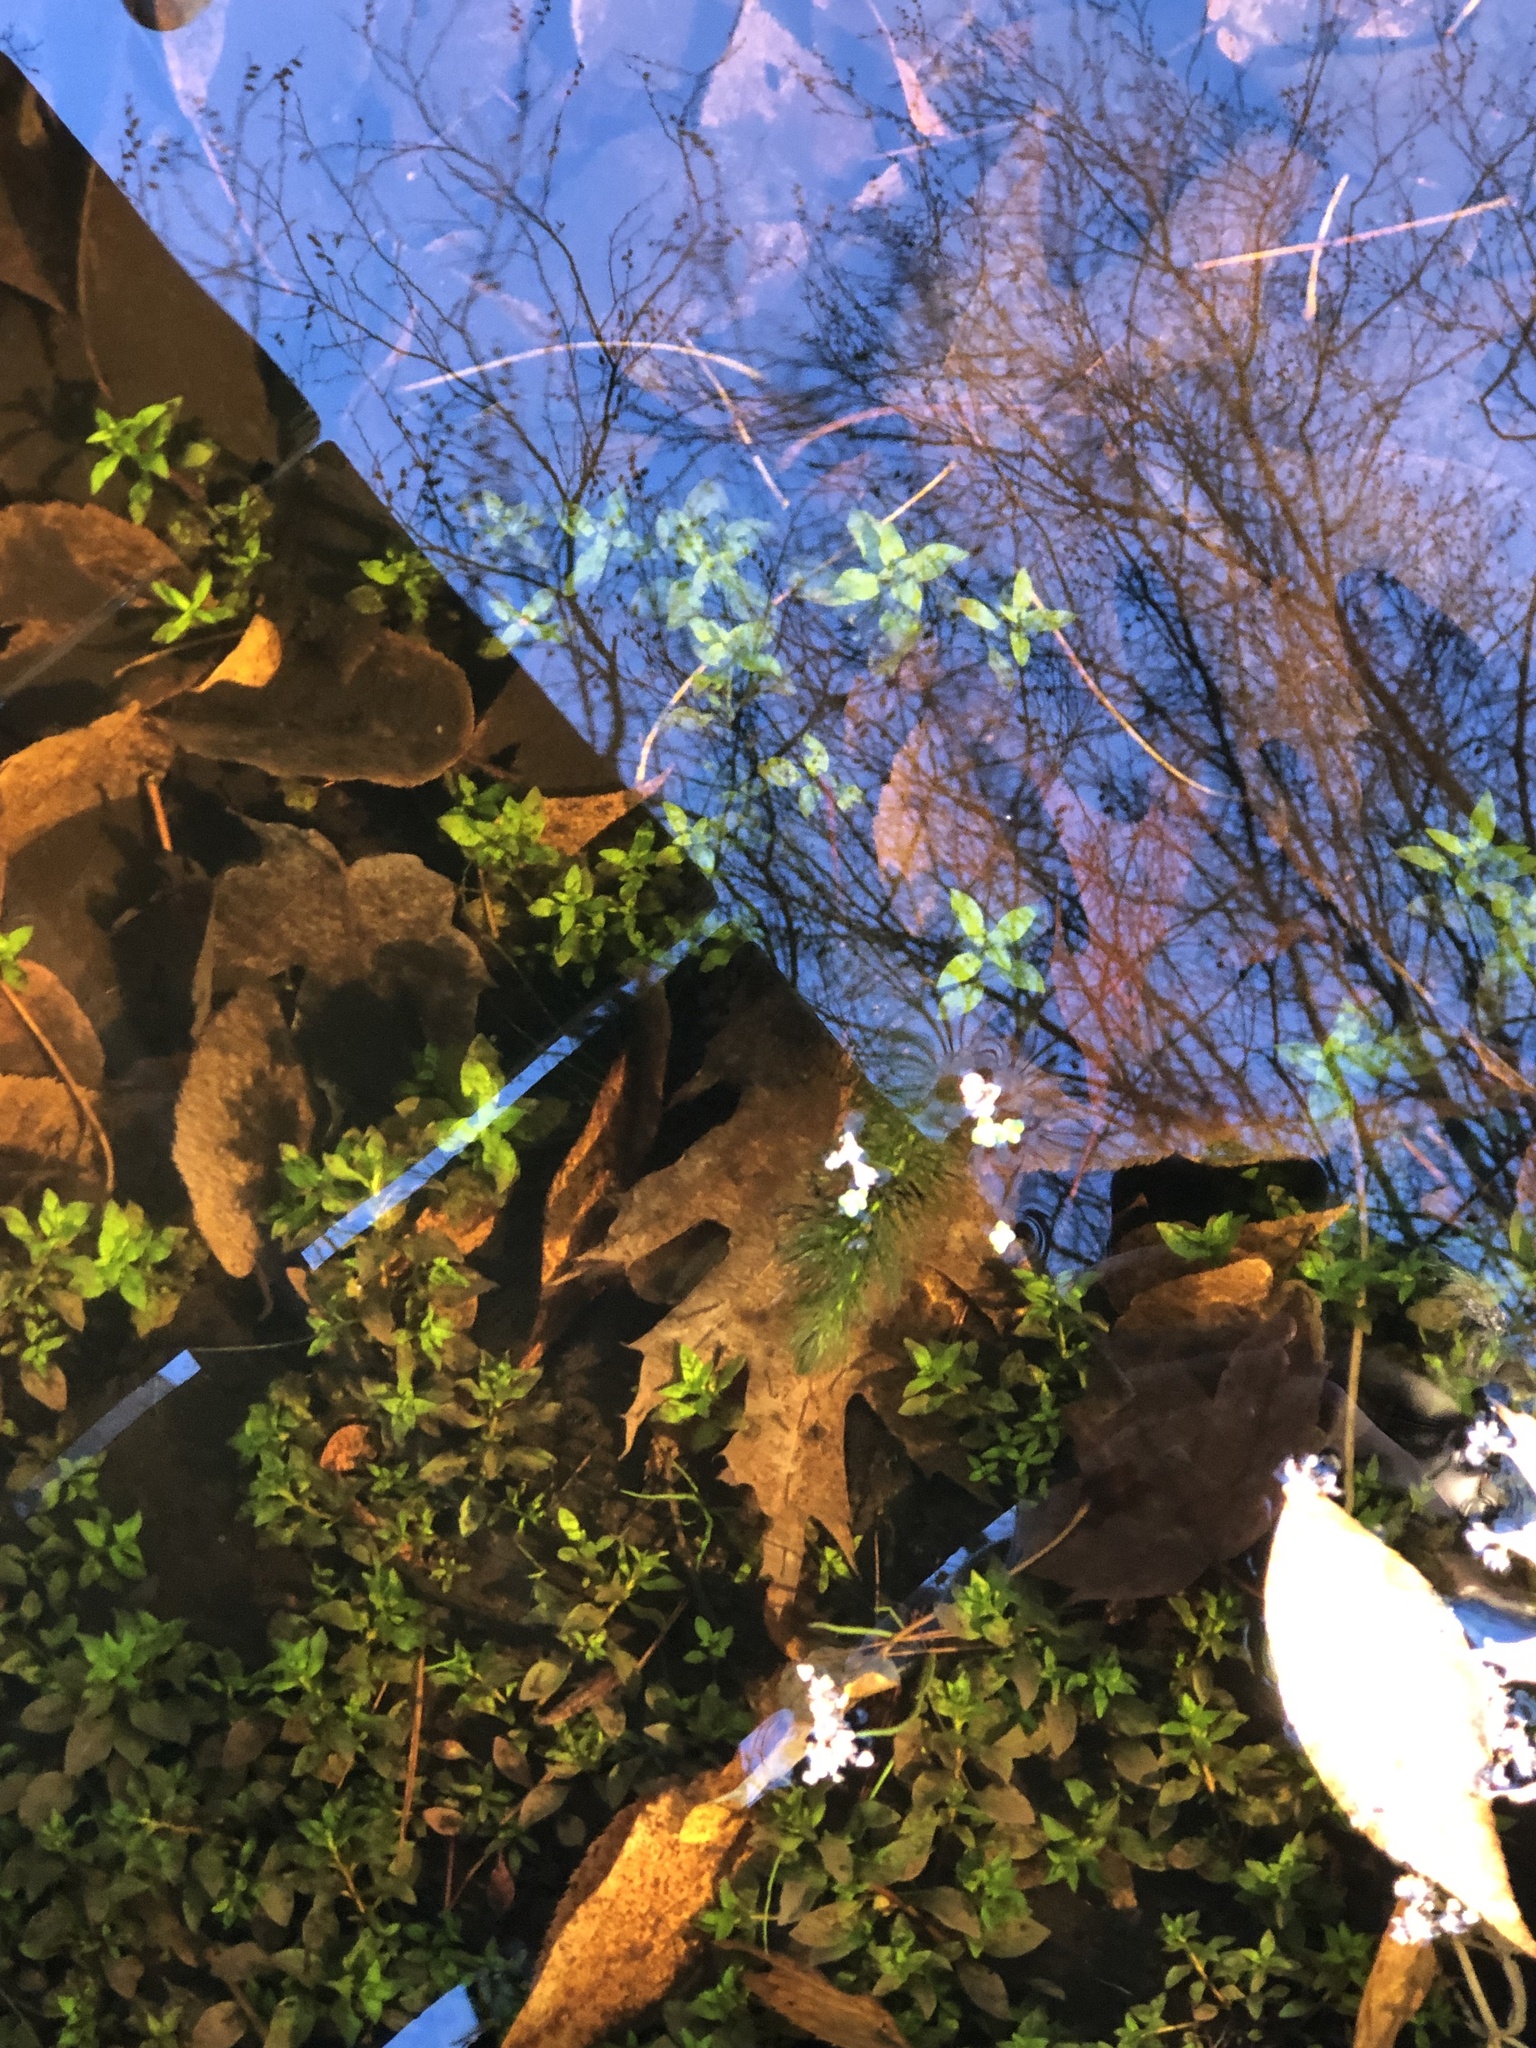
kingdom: Plantae
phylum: Tracheophyta
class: Magnoliopsida
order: Myrtales
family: Onagraceae
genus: Ludwigia
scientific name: Ludwigia palustris
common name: Hampshire-purslane
